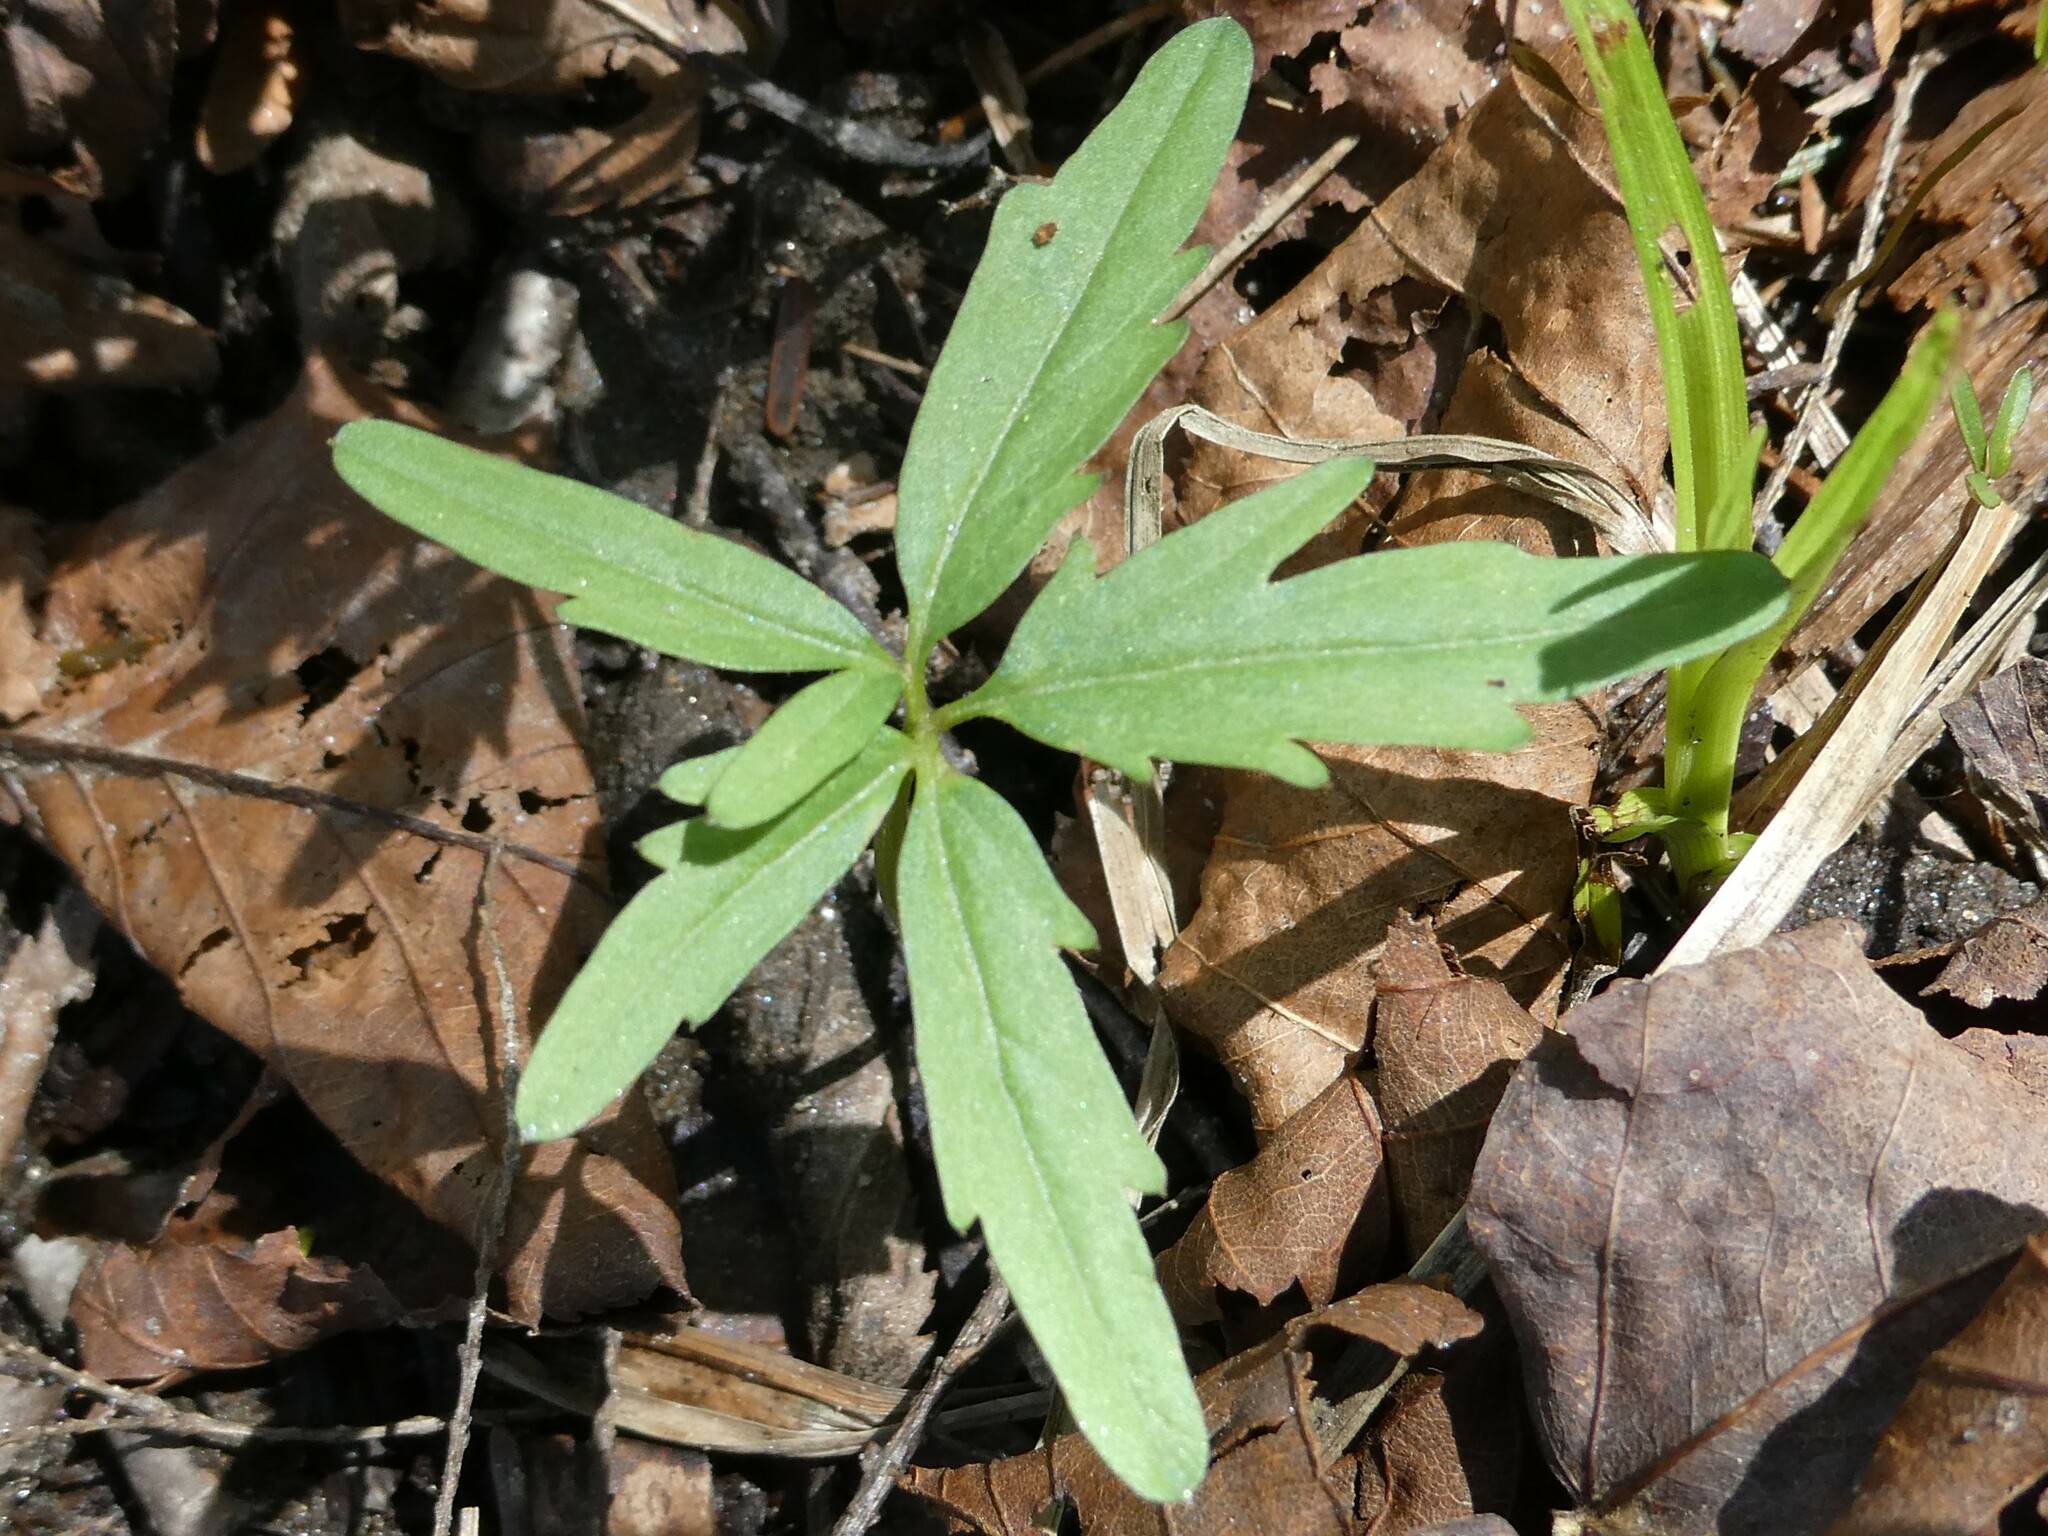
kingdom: Plantae
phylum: Tracheophyta
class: Magnoliopsida
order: Brassicales
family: Brassicaceae
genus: Cardamine
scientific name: Cardamine concatenata
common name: Cut-leaf toothcup
